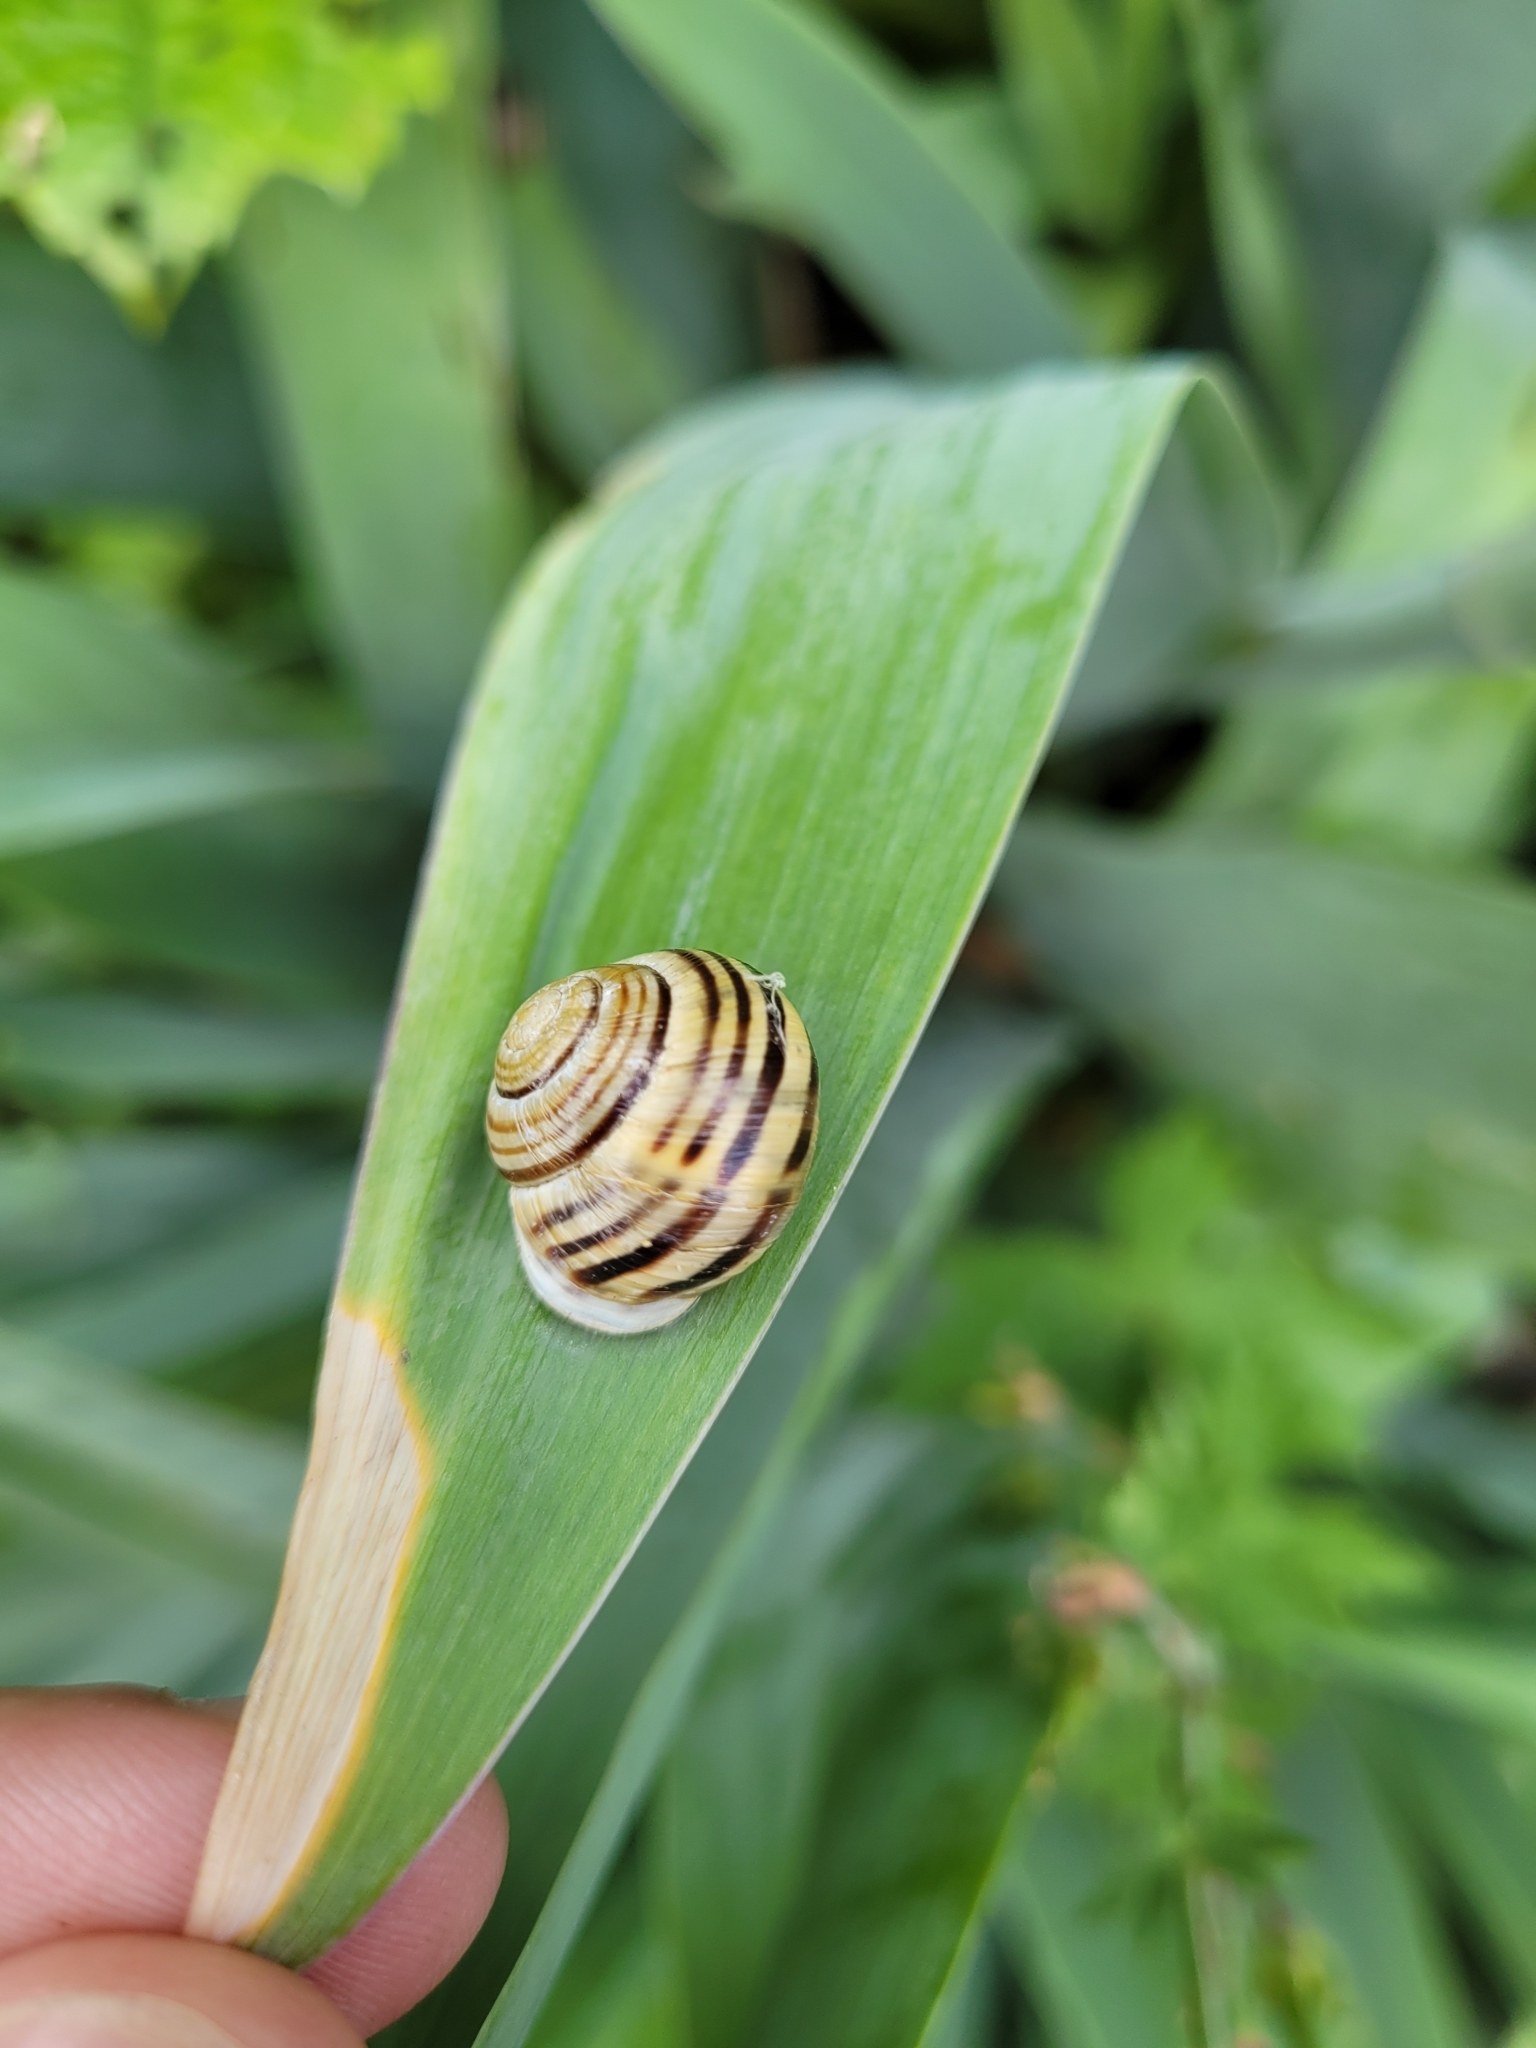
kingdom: Animalia
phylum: Mollusca
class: Gastropoda
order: Stylommatophora
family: Helicidae
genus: Cepaea
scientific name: Cepaea hortensis
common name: White-lip gardensnail
